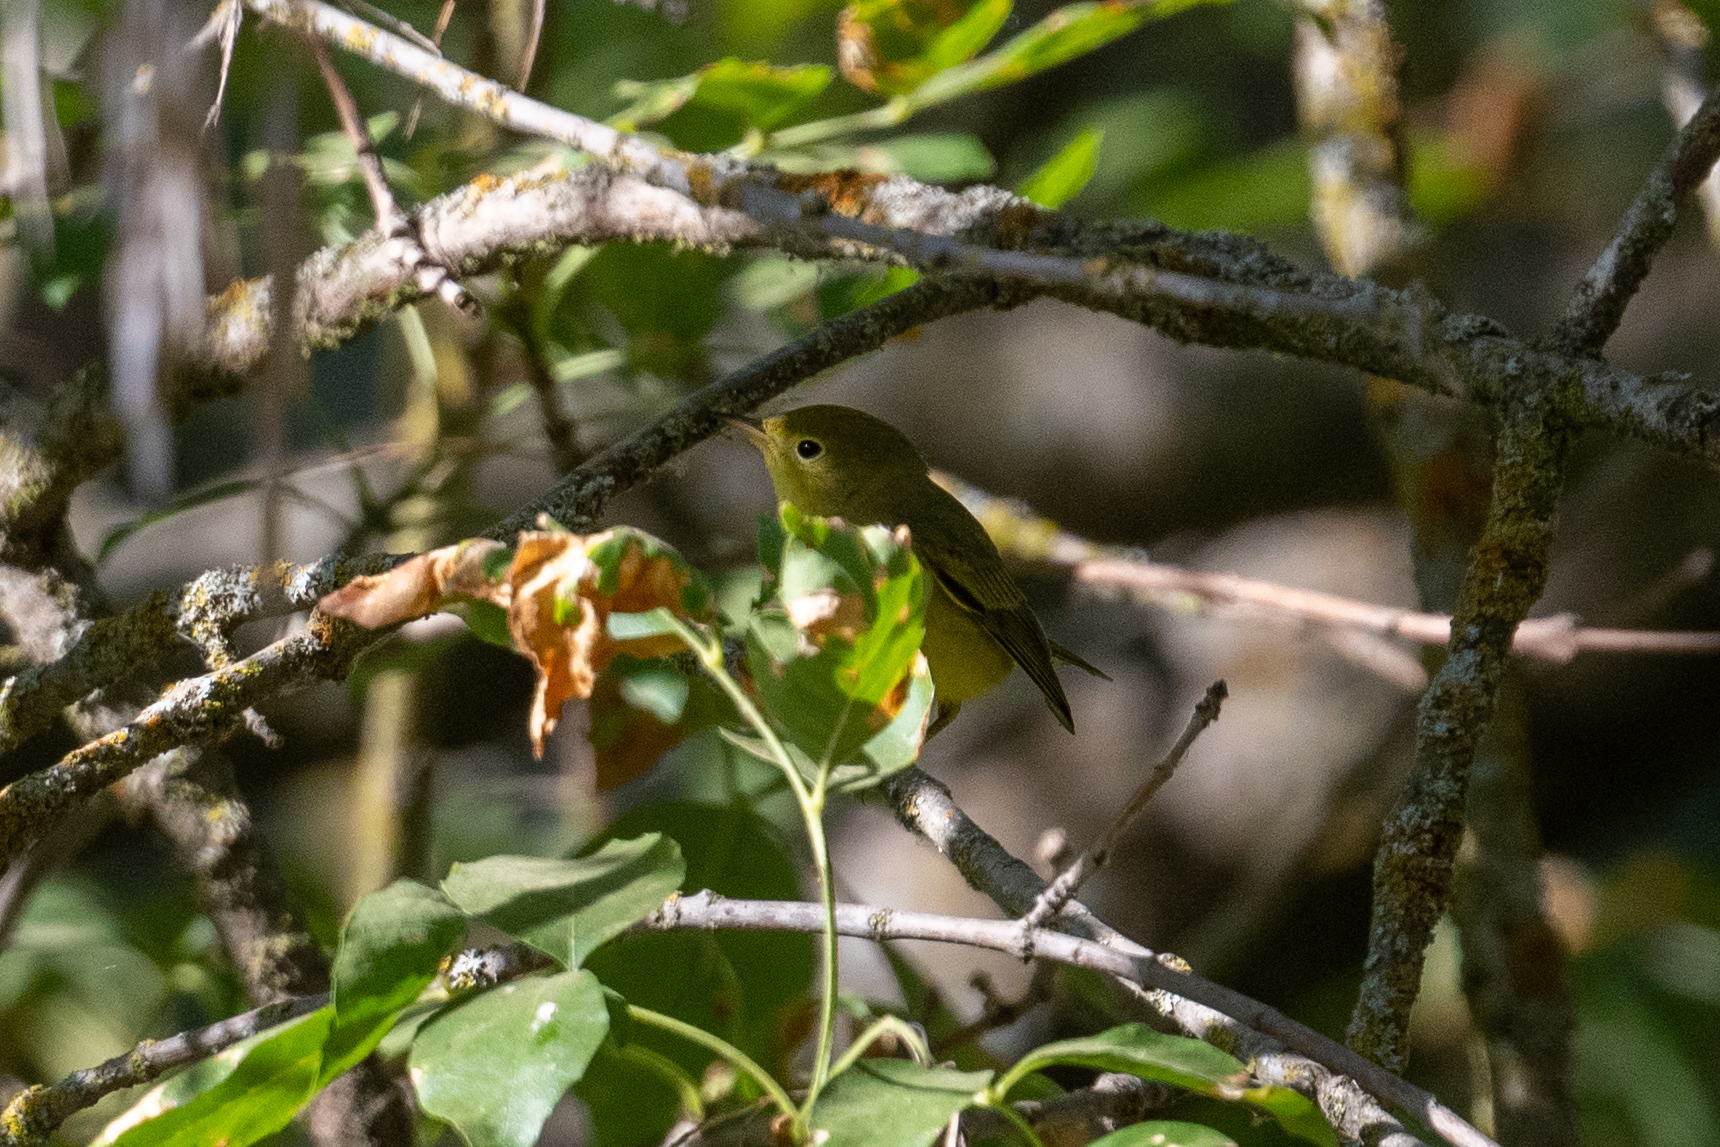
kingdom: Animalia
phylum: Chordata
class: Aves
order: Passeriformes
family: Parulidae
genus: Setophaga
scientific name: Setophaga petechia
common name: Yellow warbler
